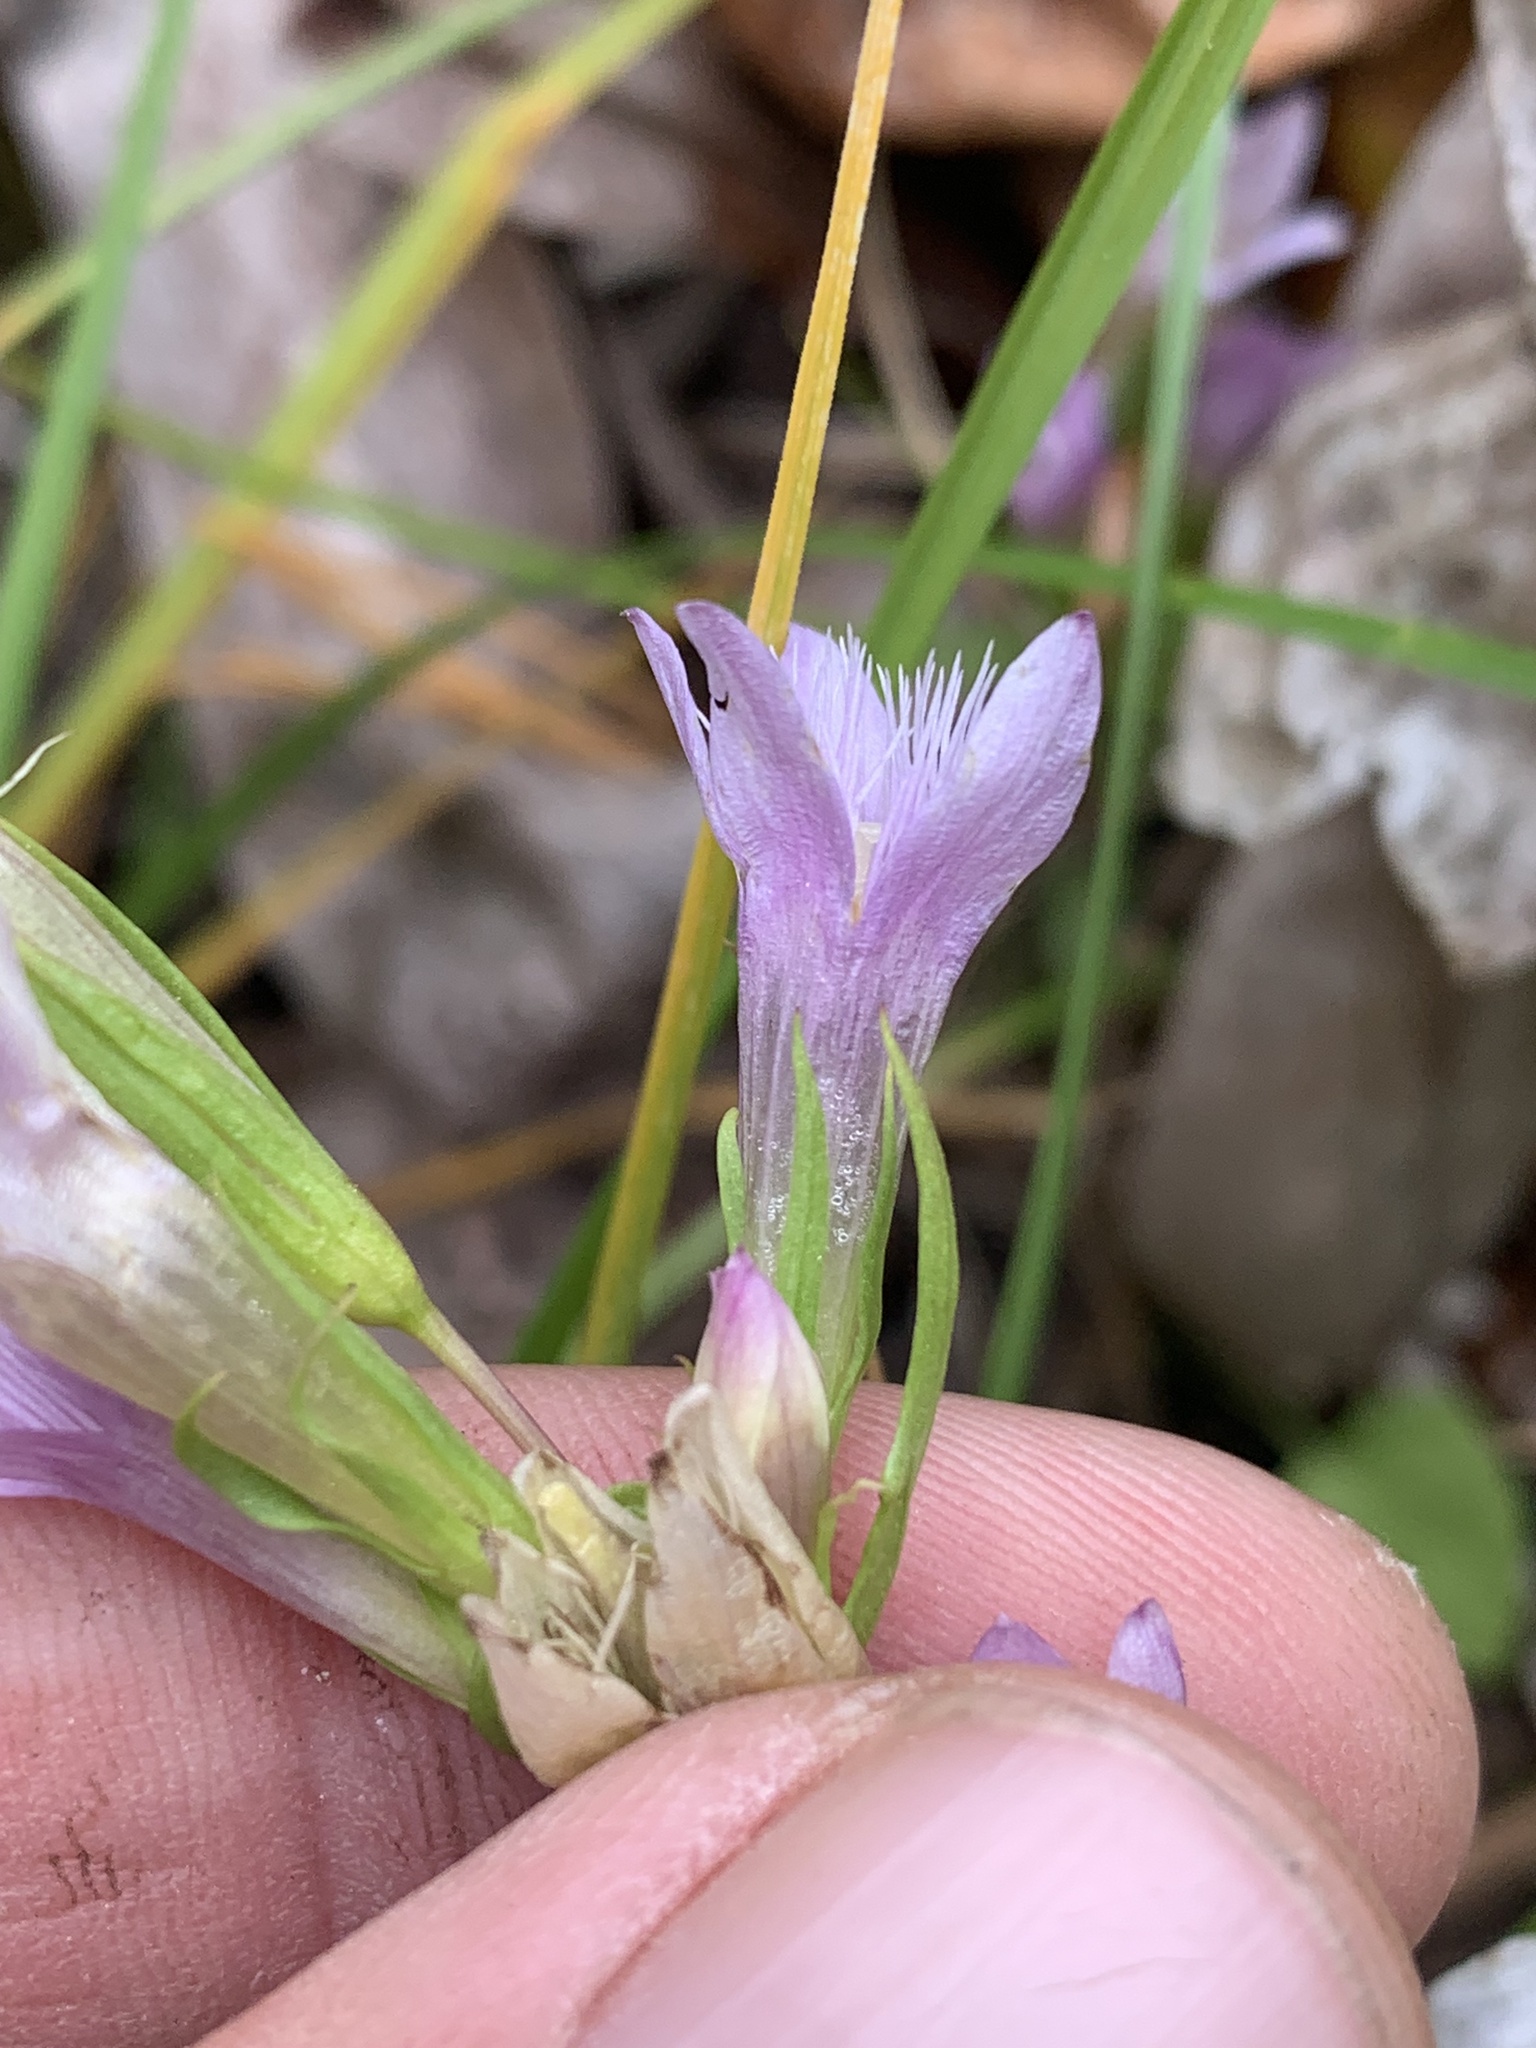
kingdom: Plantae
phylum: Tracheophyta
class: Magnoliopsida
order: Gentianales
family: Gentianaceae
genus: Gentianella
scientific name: Gentianella amarella
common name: Autumn gentian
